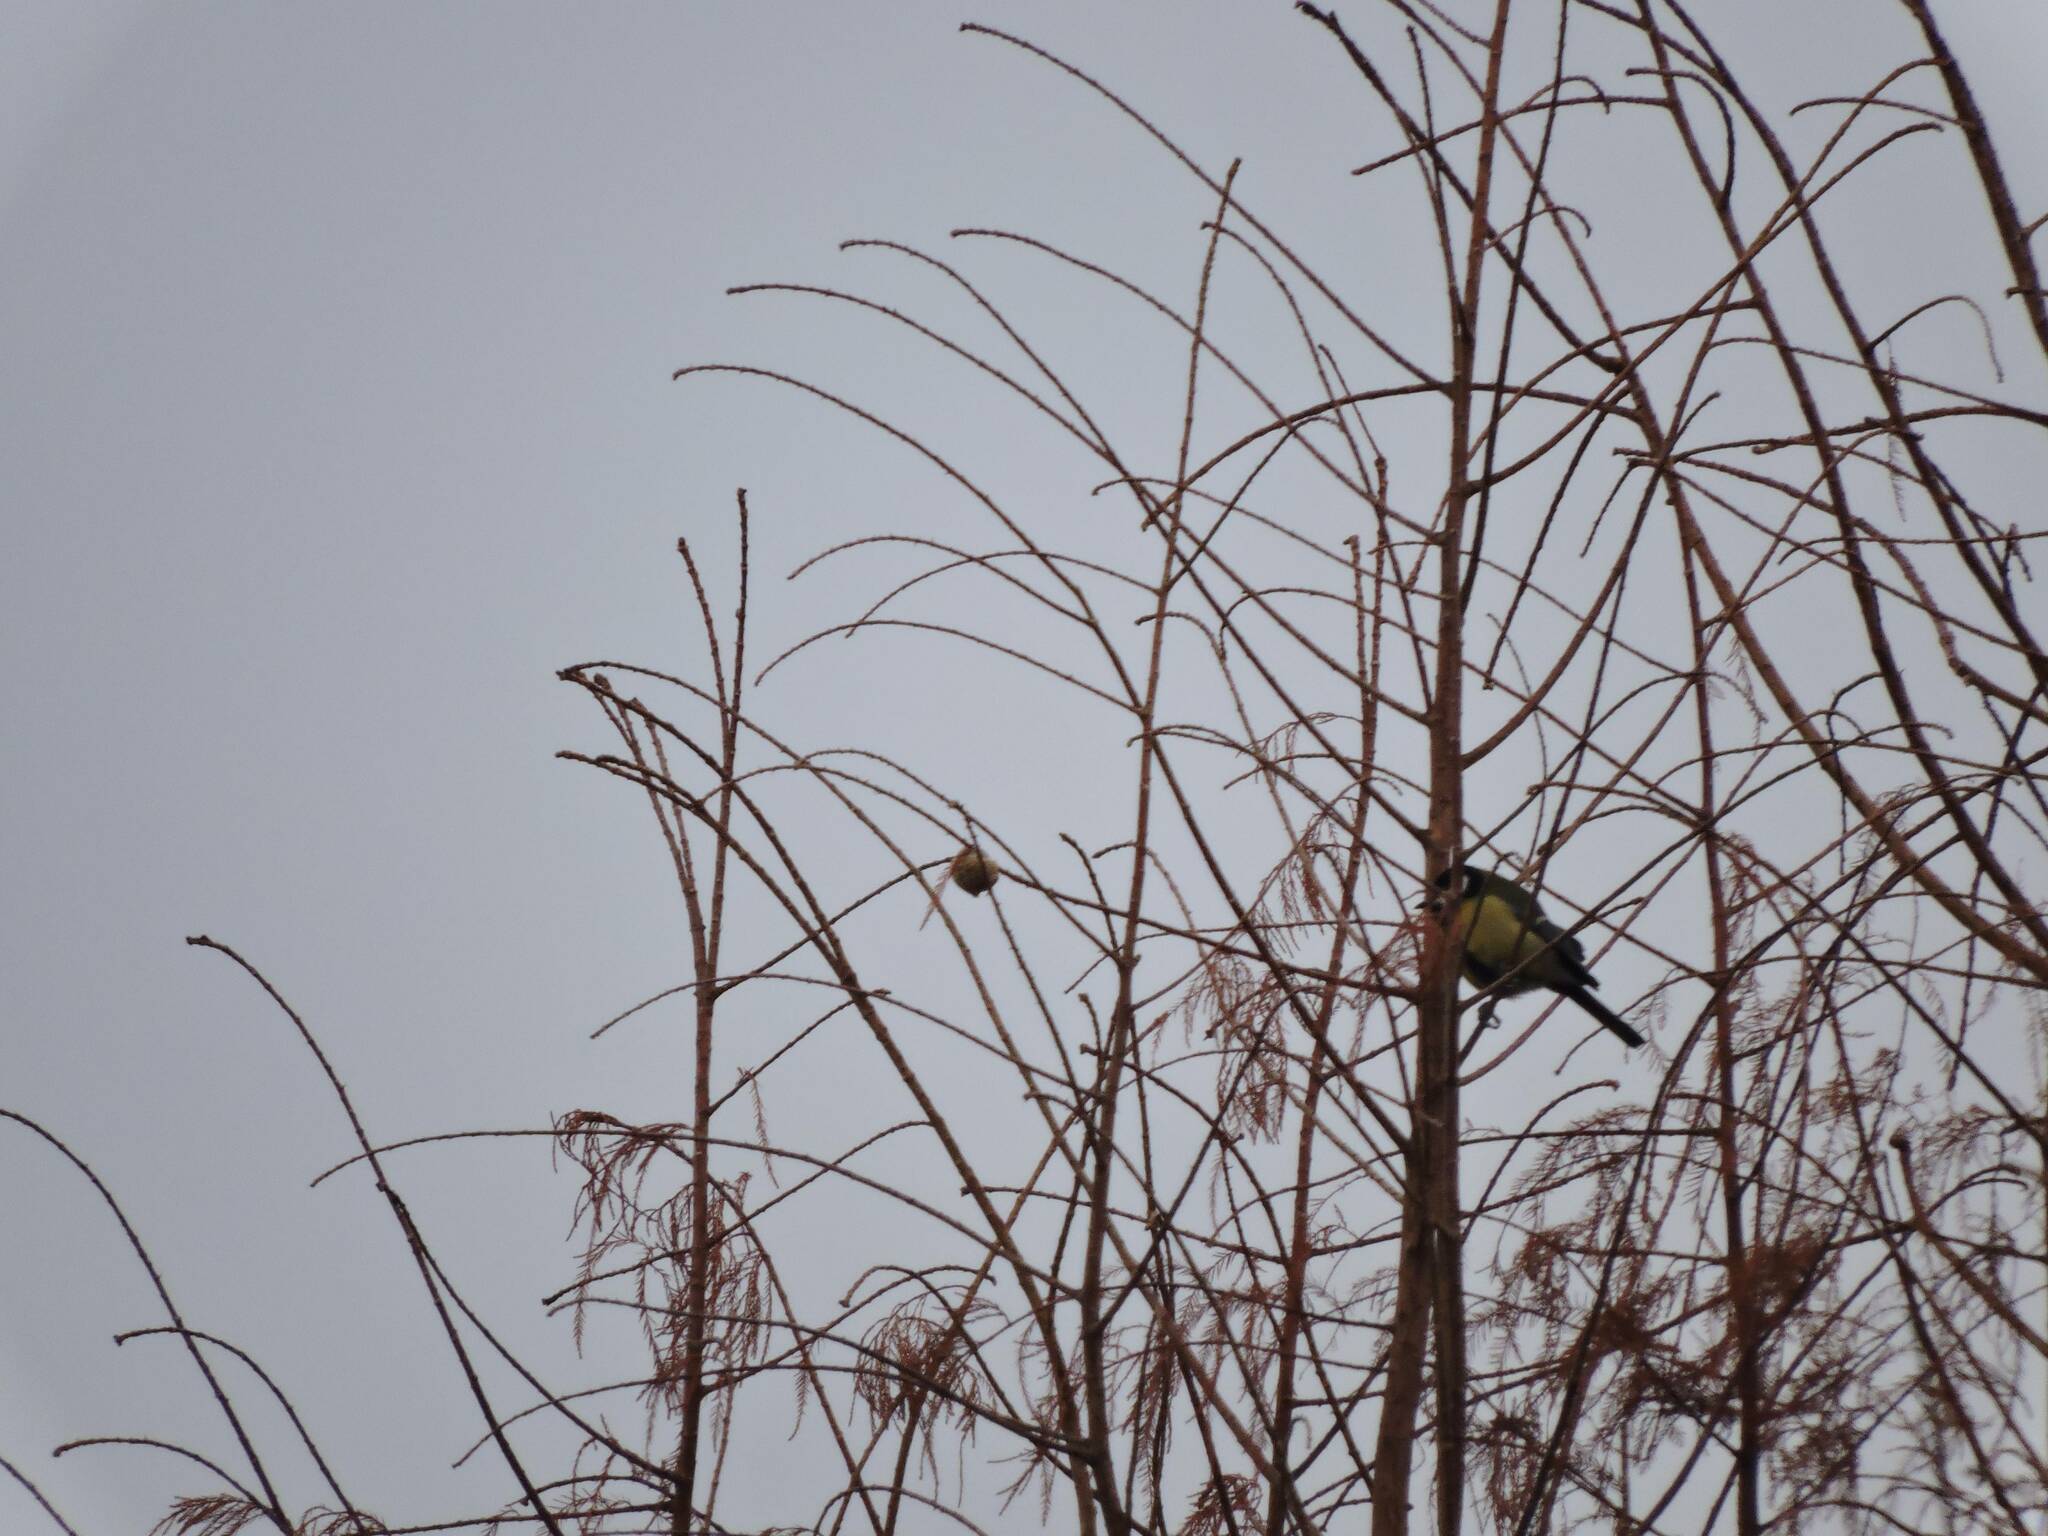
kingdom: Animalia
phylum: Chordata
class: Aves
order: Passeriformes
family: Paridae
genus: Parus
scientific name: Parus major
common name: Great tit
